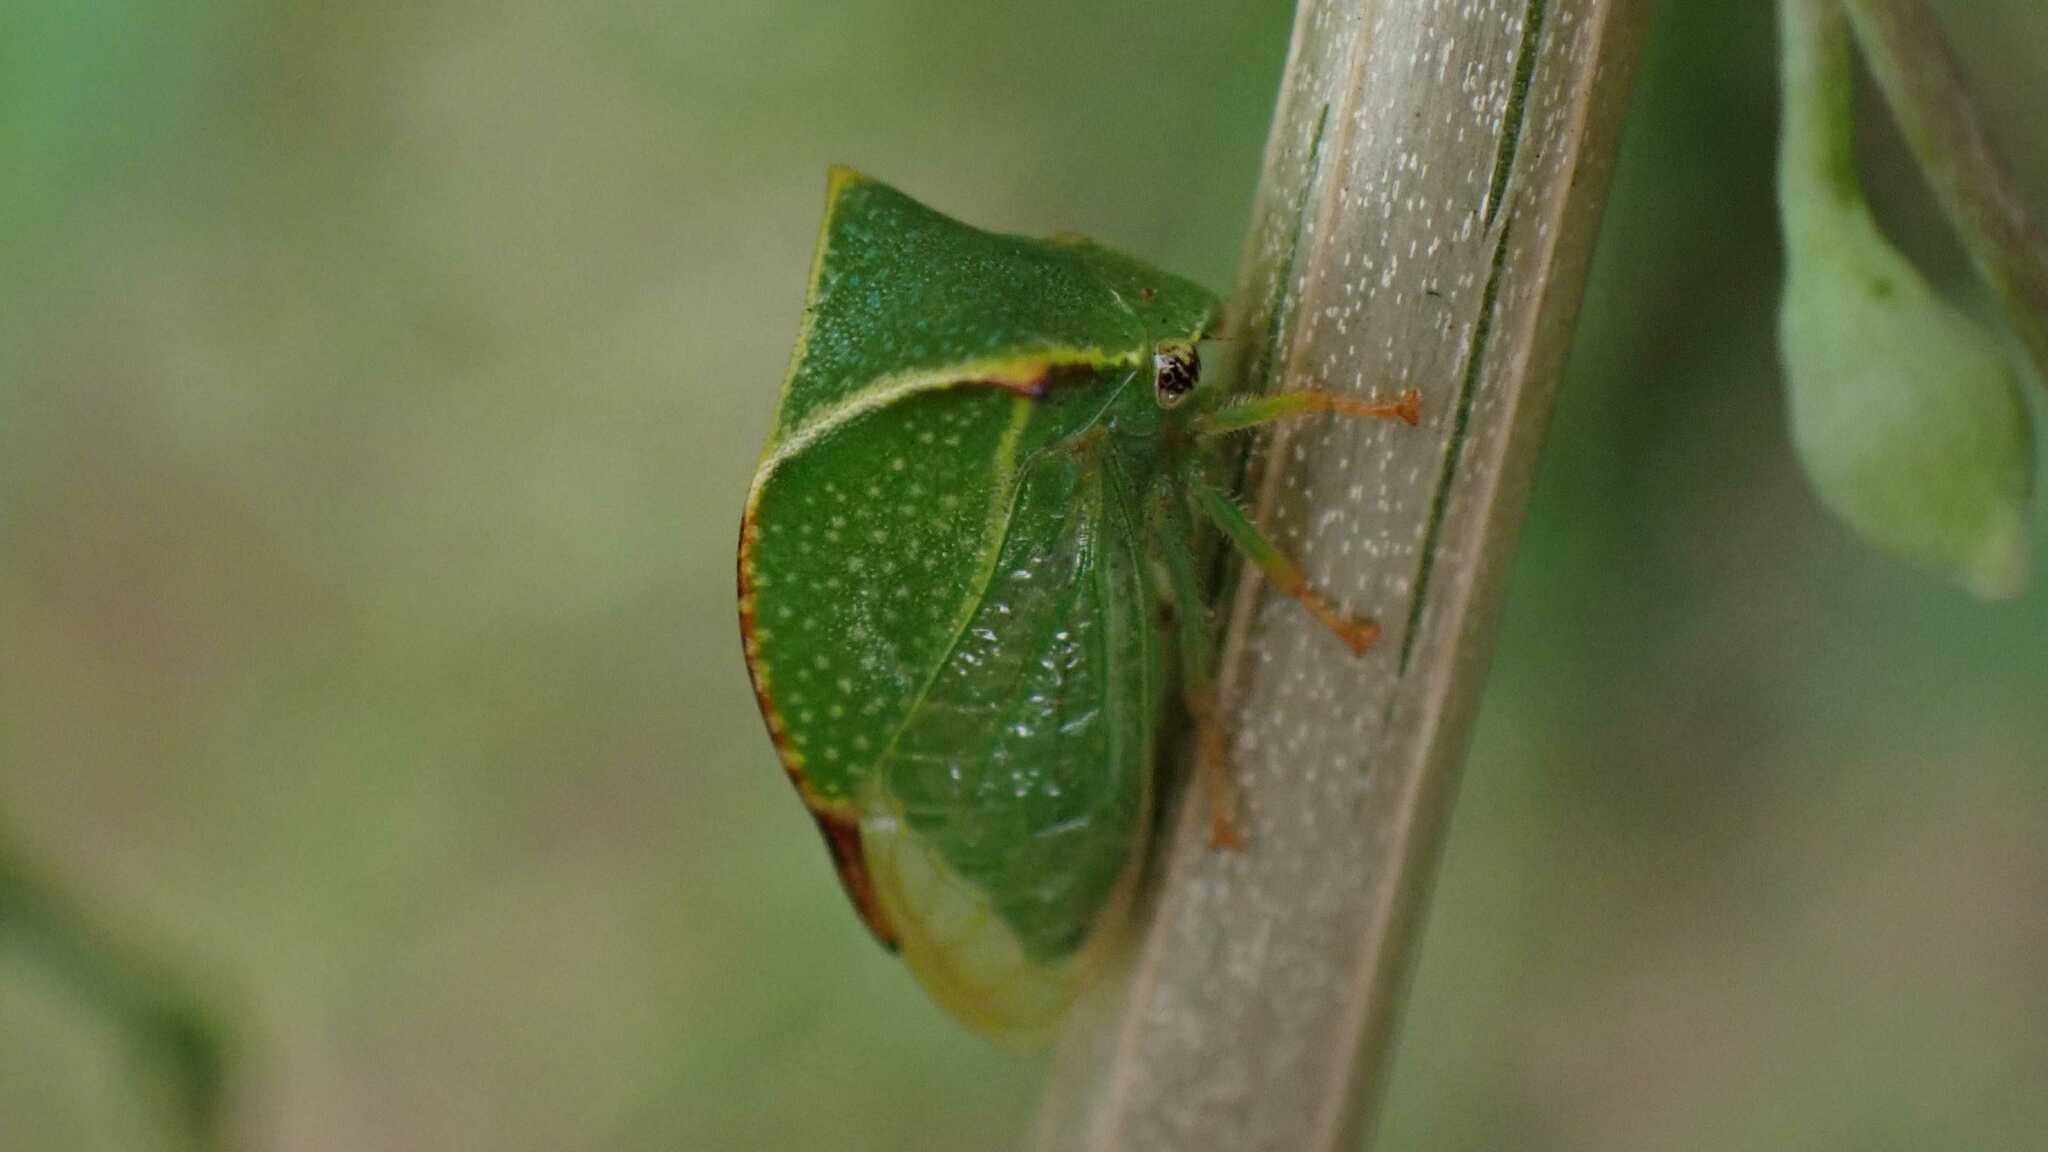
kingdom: Animalia
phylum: Arthropoda
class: Insecta
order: Hemiptera
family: Membracidae
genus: Stictocephala
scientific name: Stictocephala bisonia
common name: American buffalo treehopper
